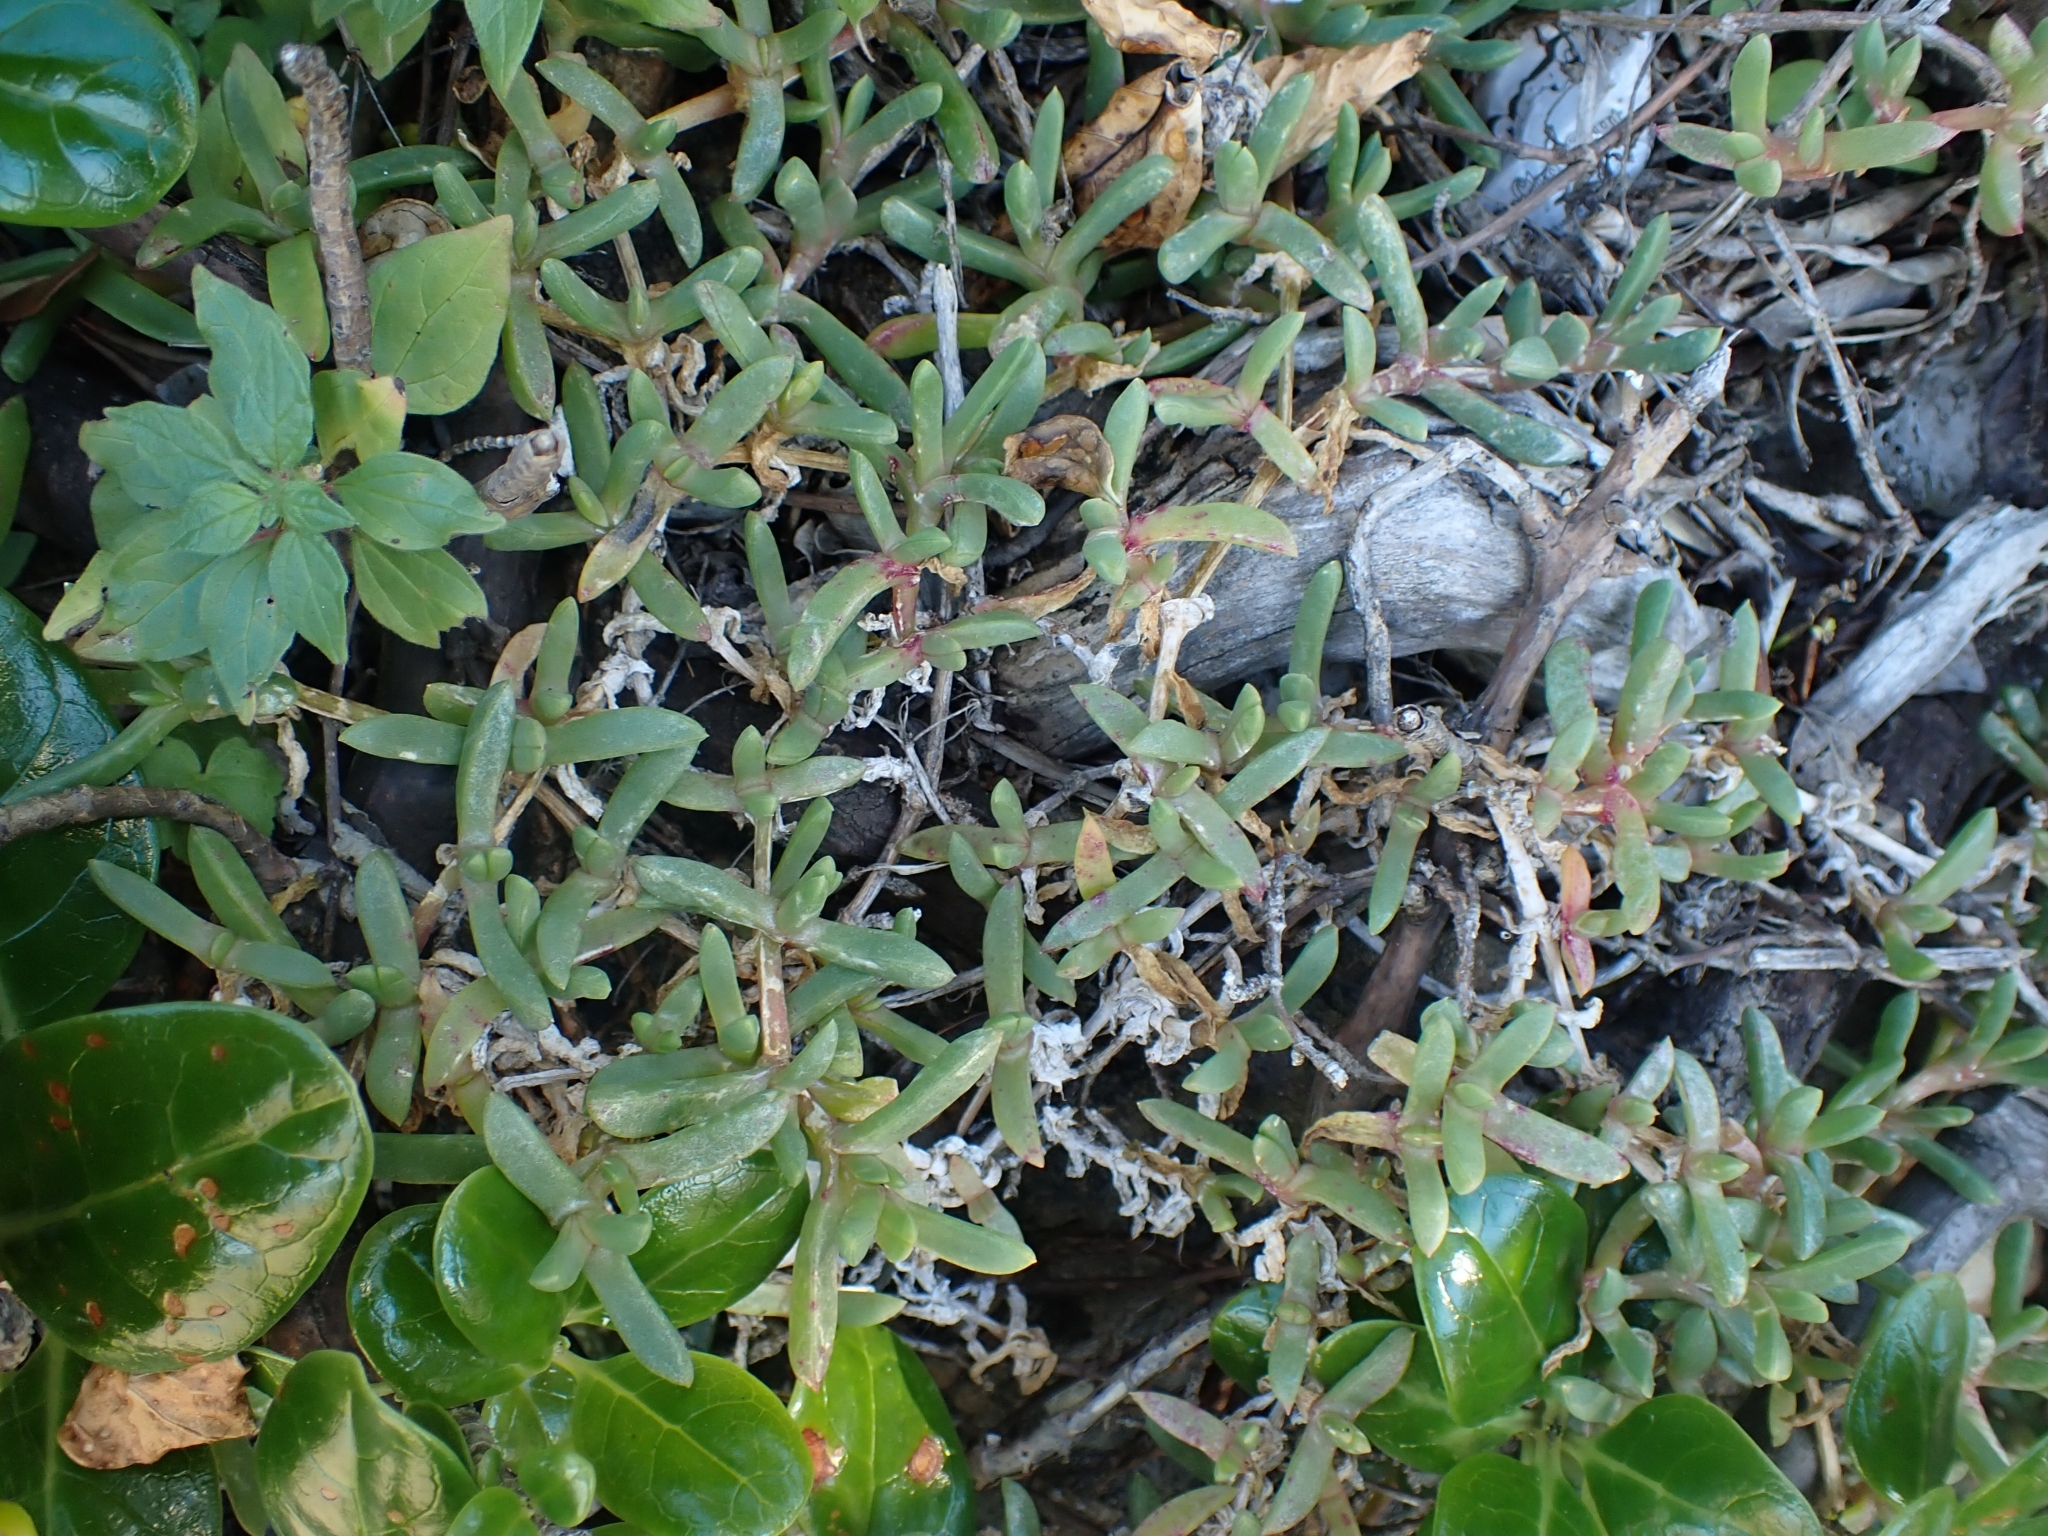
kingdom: Plantae
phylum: Tracheophyta
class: Magnoliopsida
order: Caryophyllales
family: Aizoaceae
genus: Disphyma
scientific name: Disphyma australe
